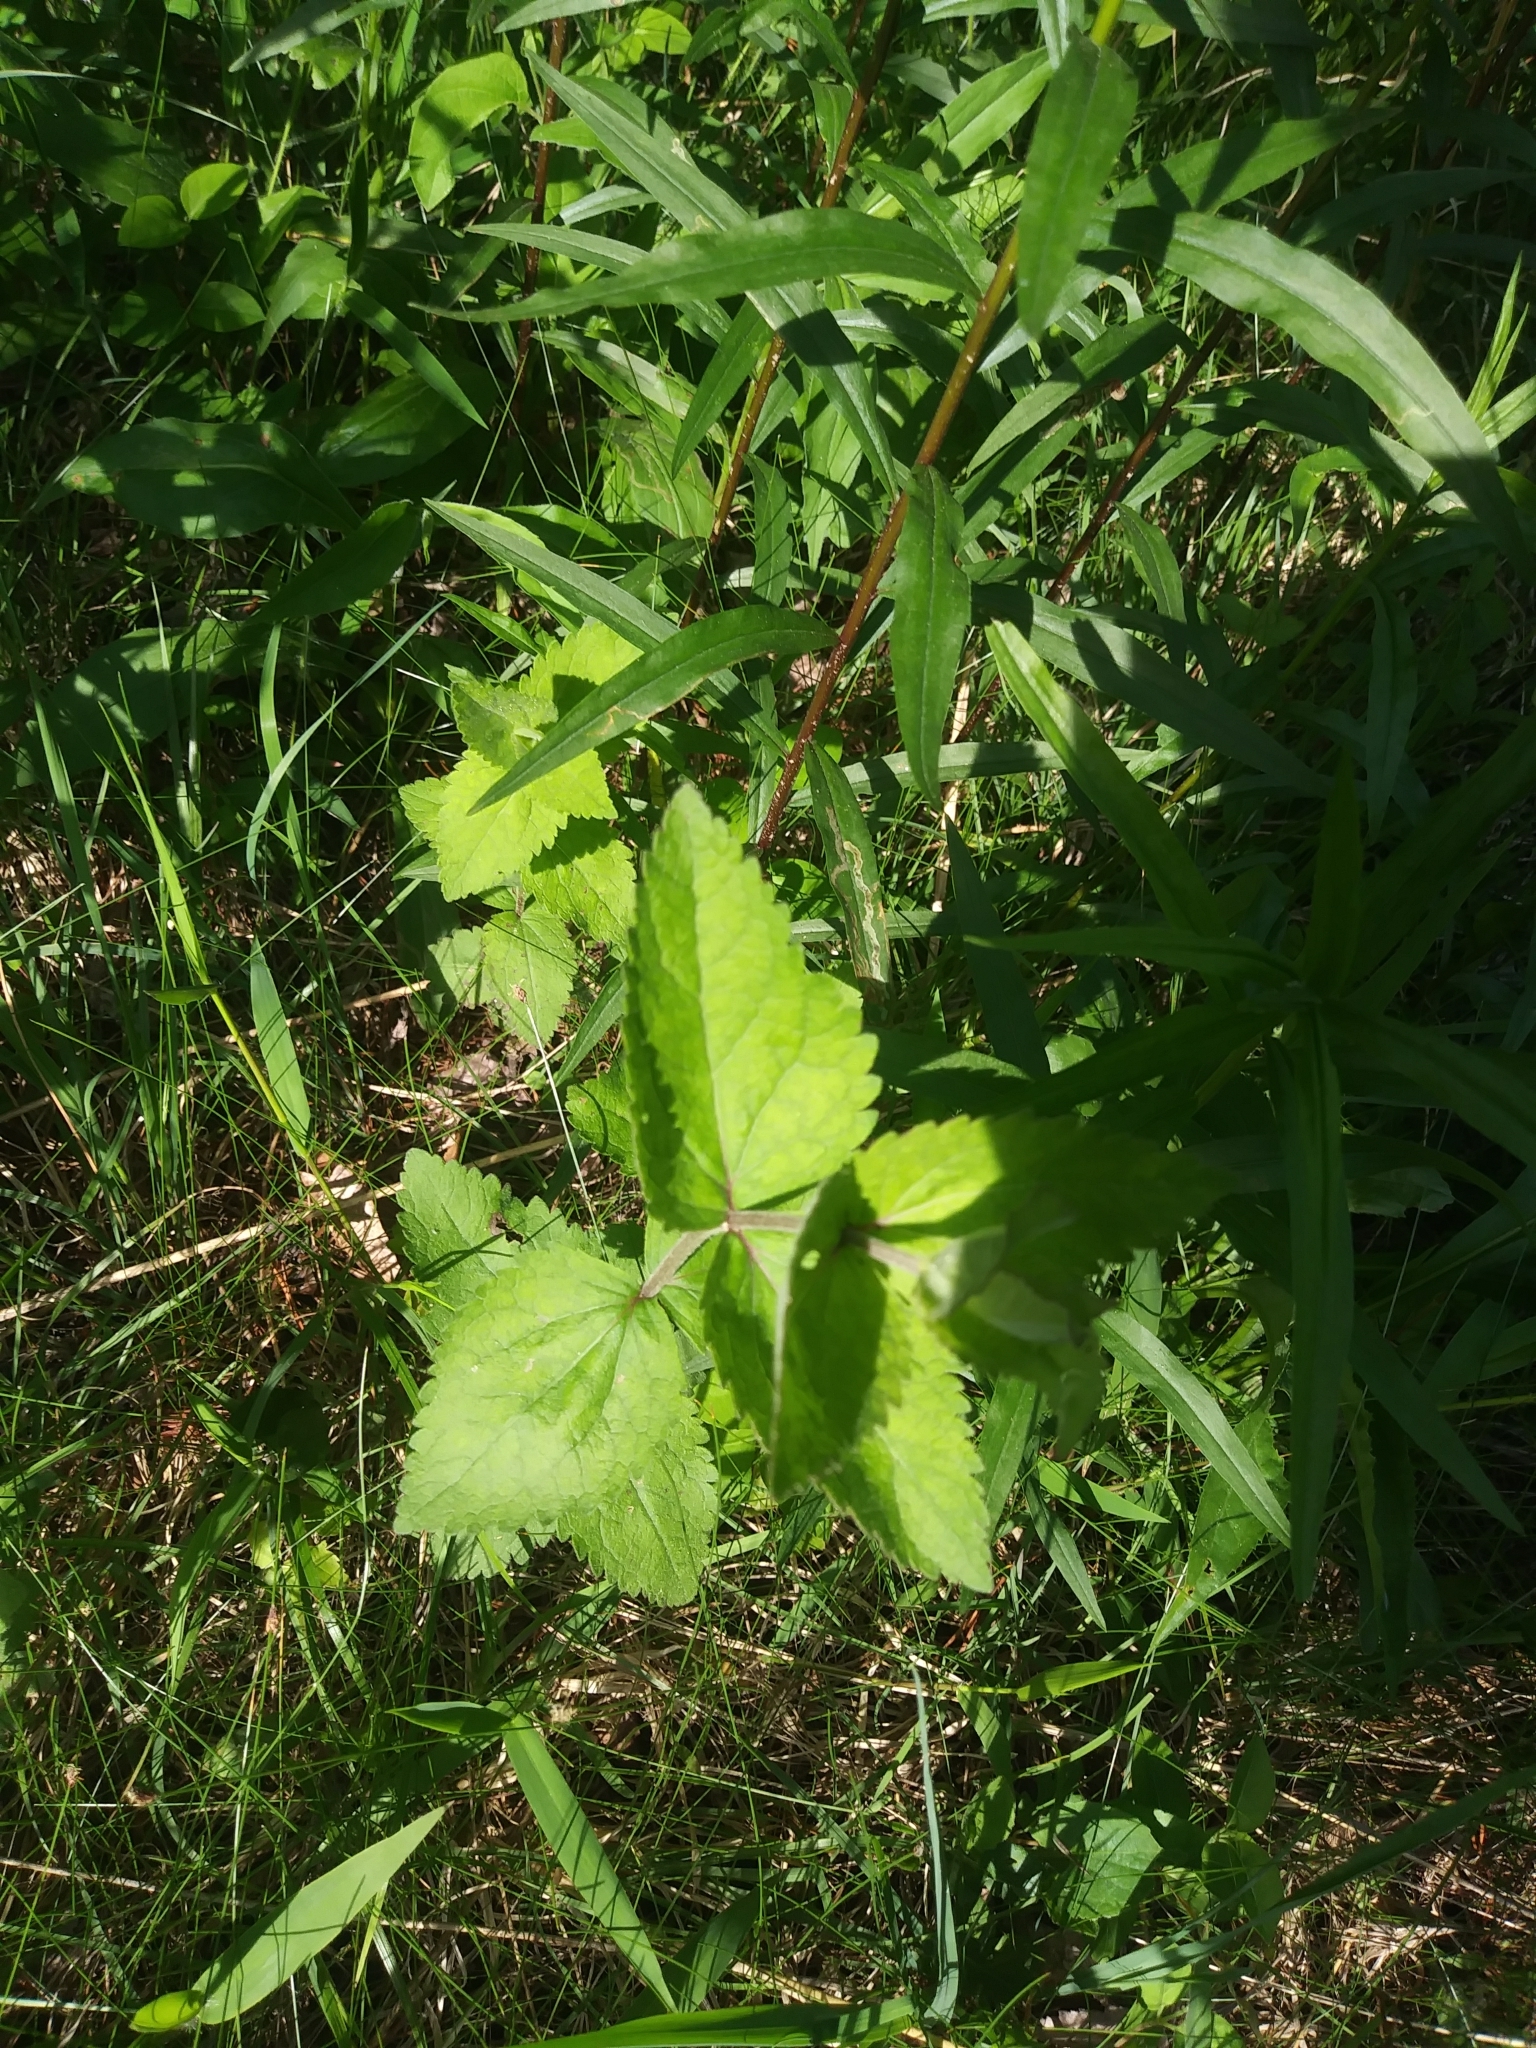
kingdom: Plantae
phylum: Tracheophyta
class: Magnoliopsida
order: Asterales
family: Asteraceae
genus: Eupatorium
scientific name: Eupatorium rotundifolium
